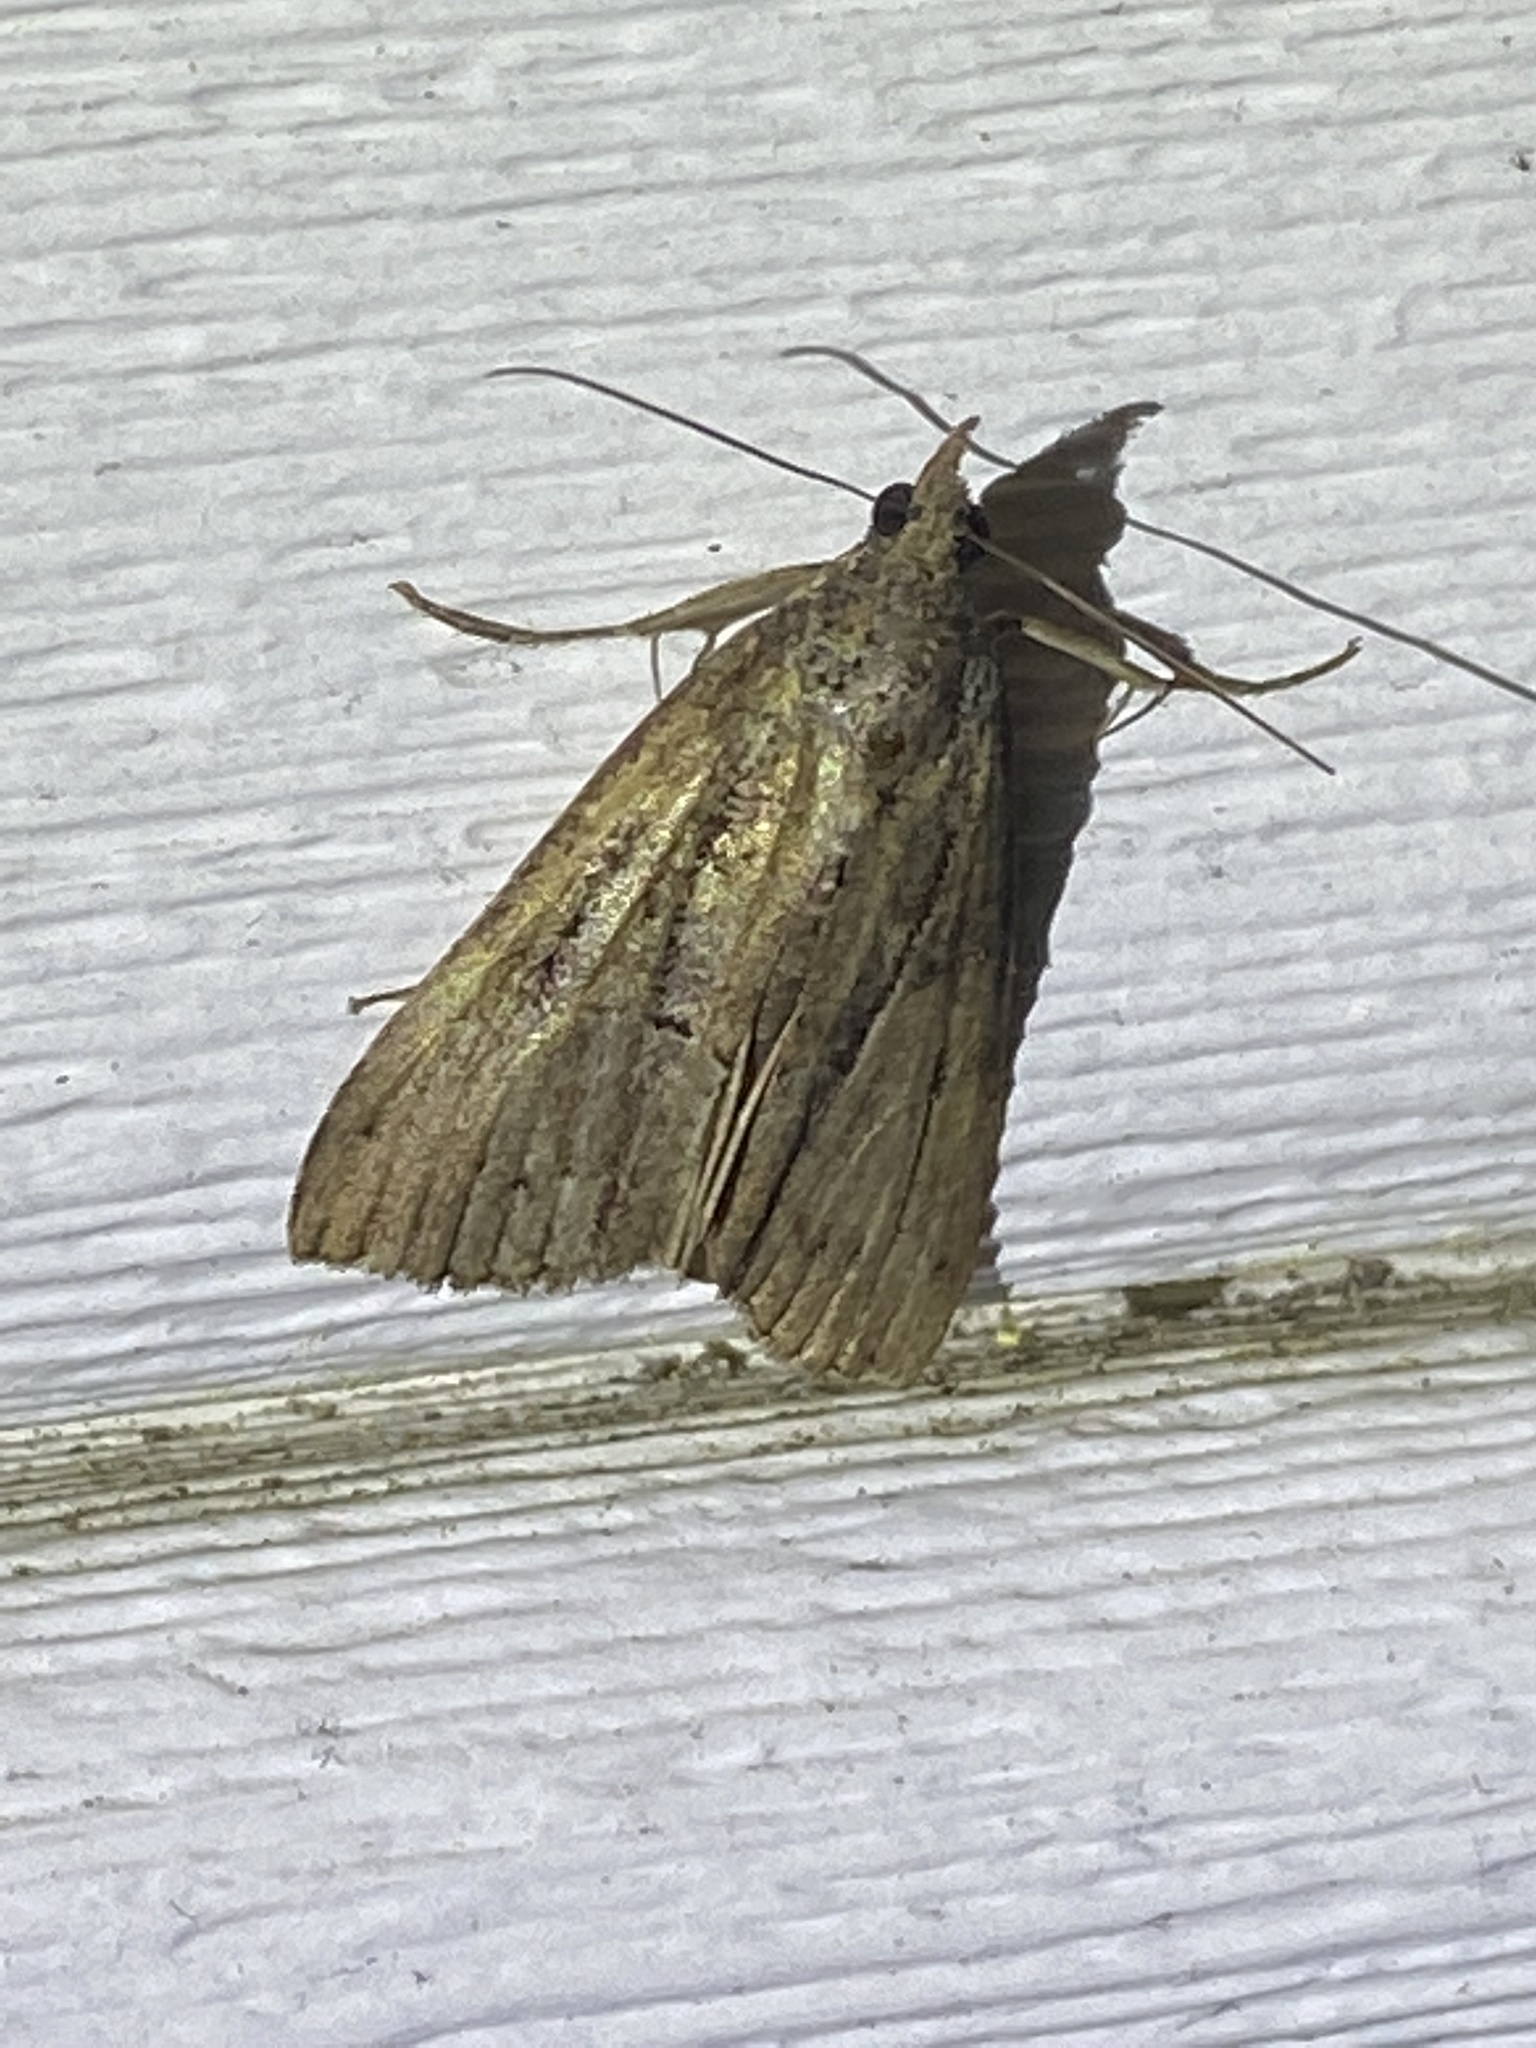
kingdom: Animalia
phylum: Arthropoda
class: Insecta
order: Lepidoptera
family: Erebidae
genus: Hypena
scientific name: Hypena scabra
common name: Green cloverworm
